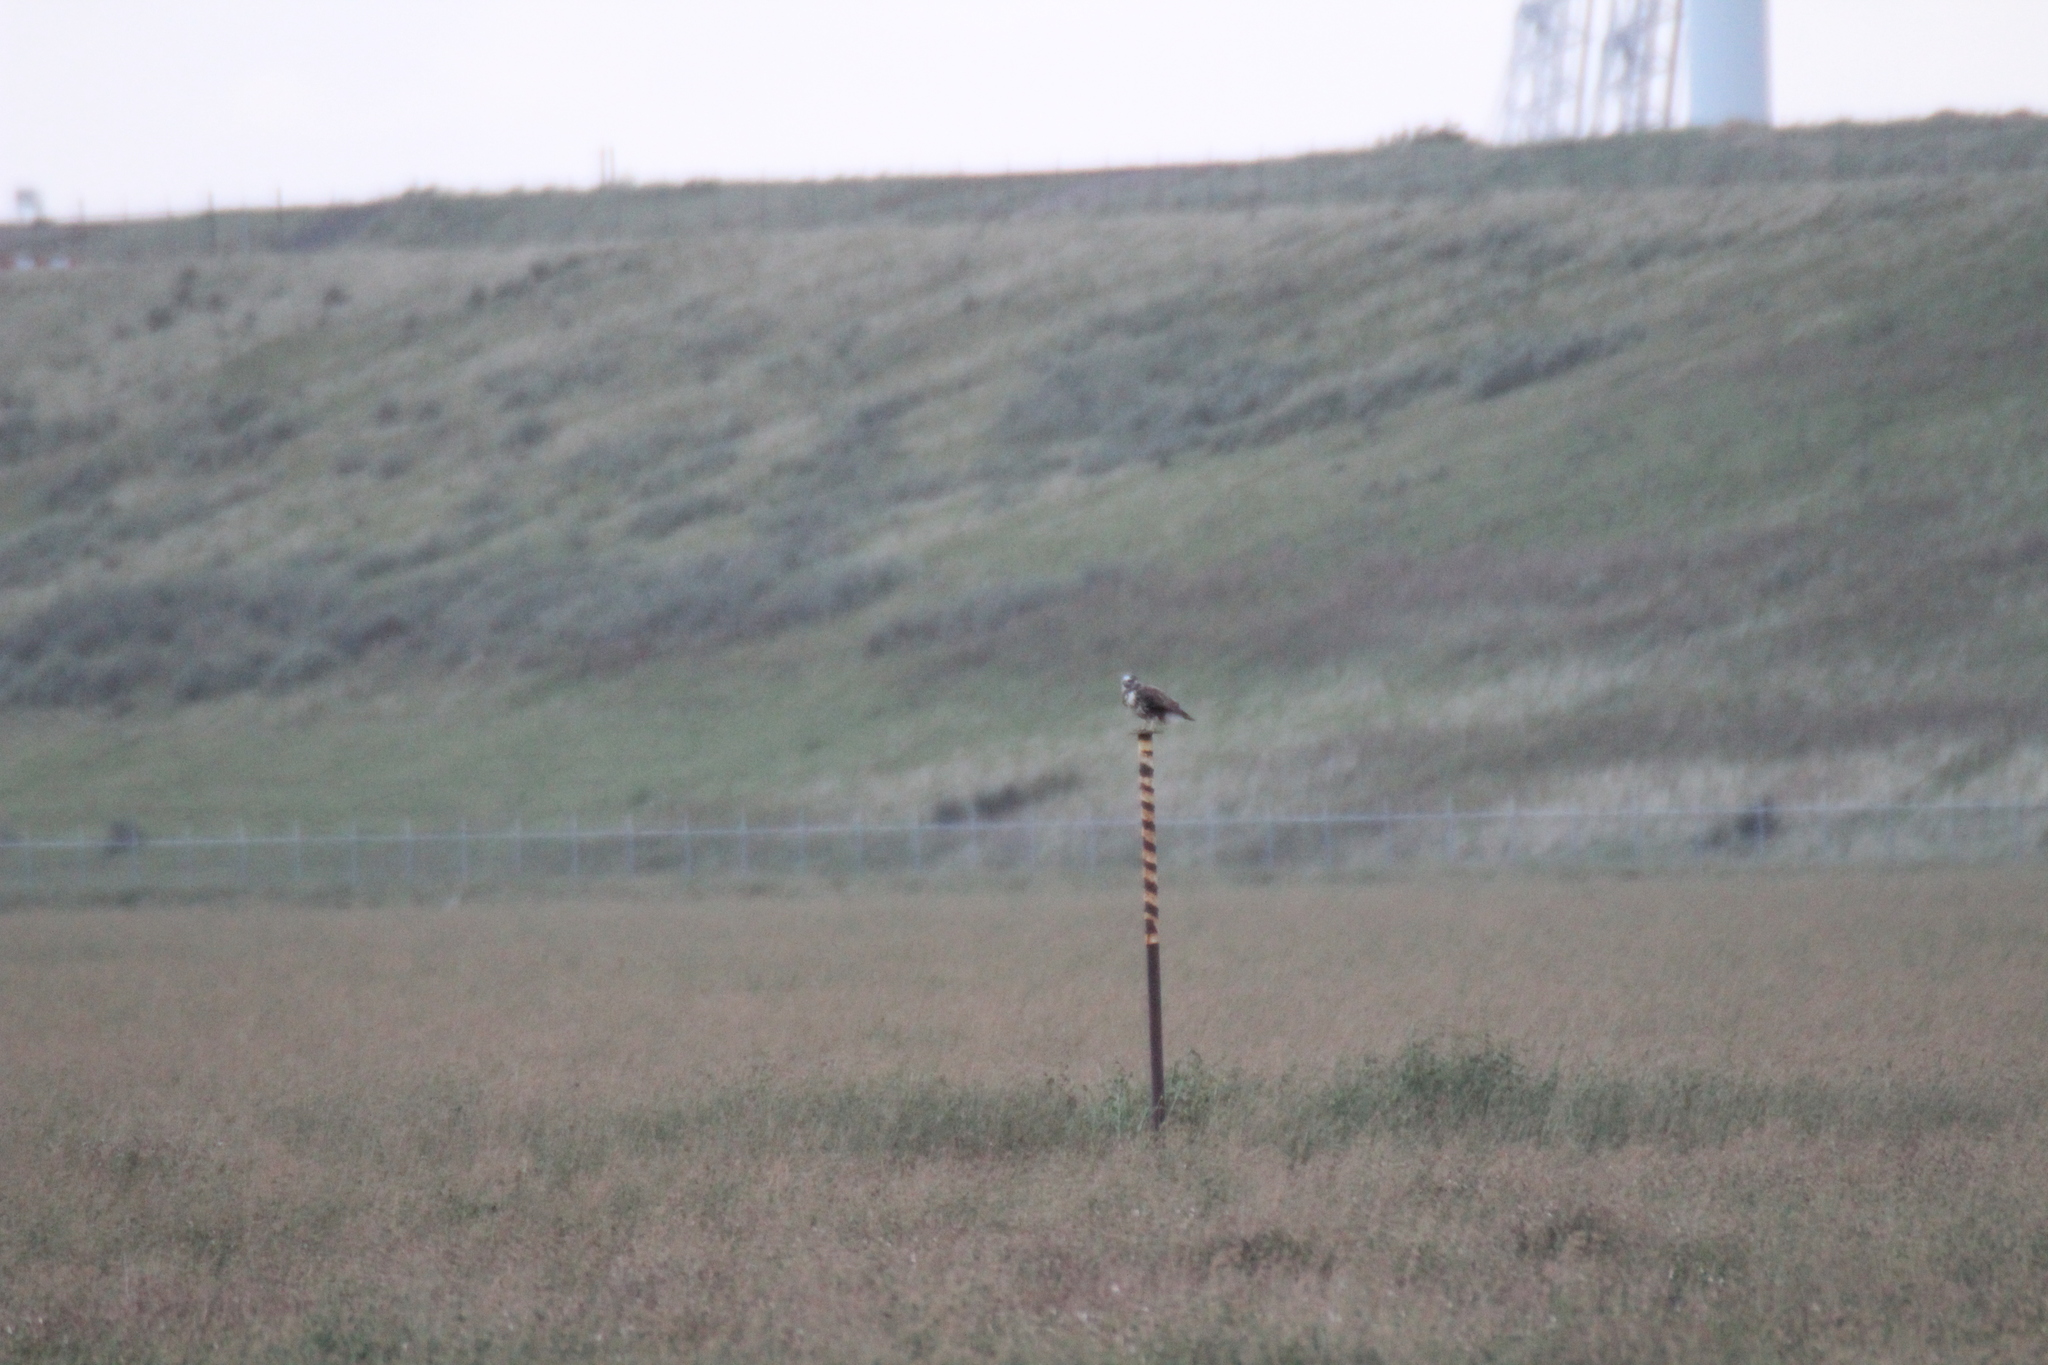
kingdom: Animalia
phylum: Chordata
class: Aves
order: Accipitriformes
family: Accipitridae
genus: Buteo
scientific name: Buteo buteo
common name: Common buzzard
